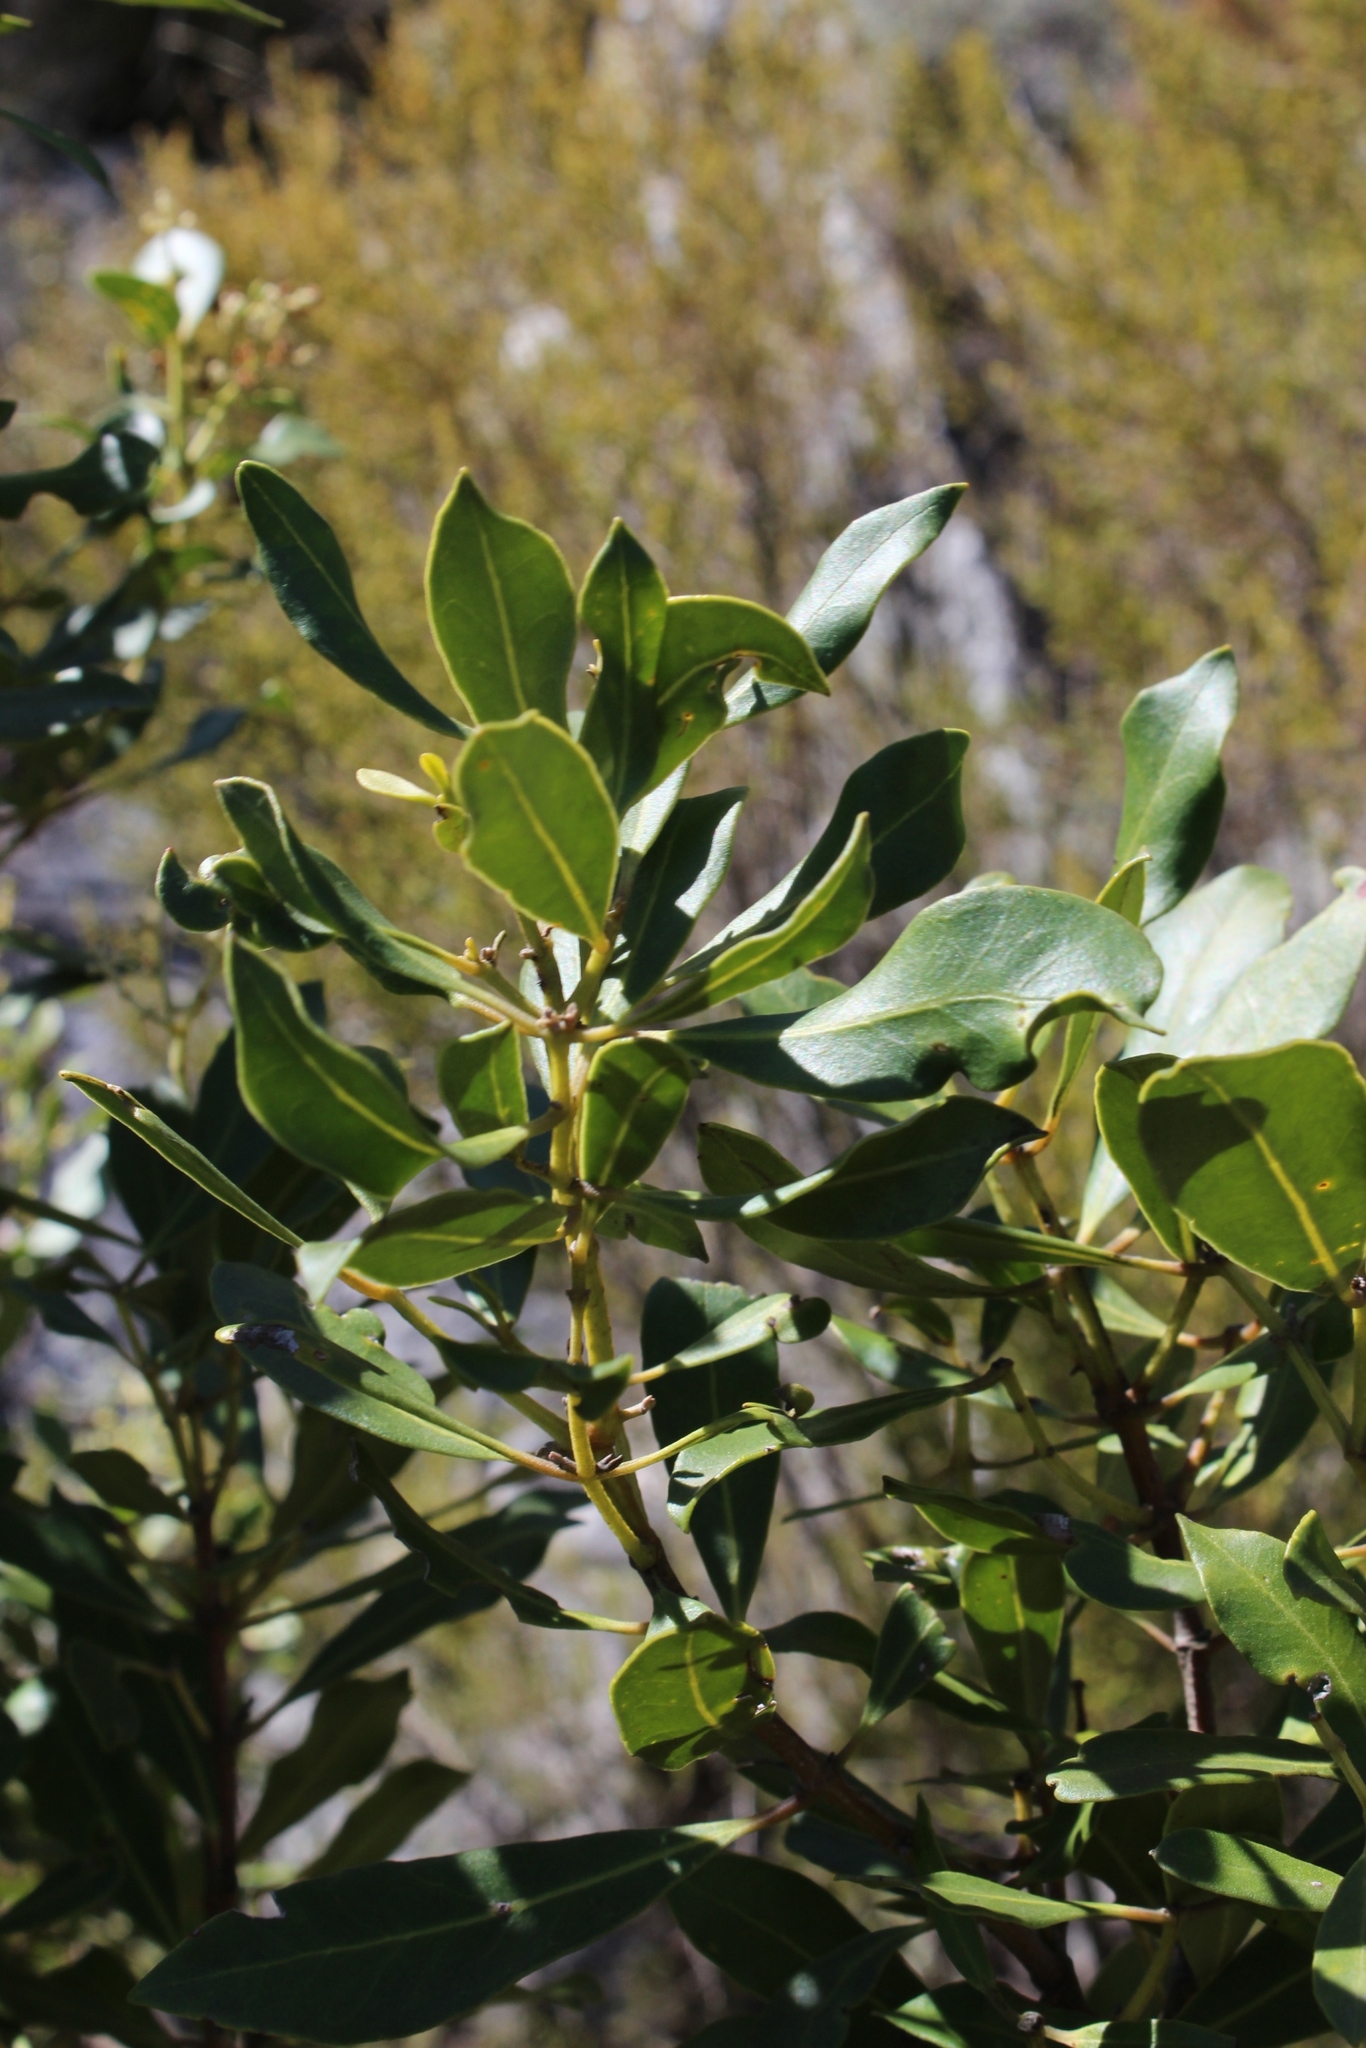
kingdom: Plantae
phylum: Tracheophyta
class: Magnoliopsida
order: Lamiales
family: Oleaceae
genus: Olea
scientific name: Olea capensis
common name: Black ironwood
